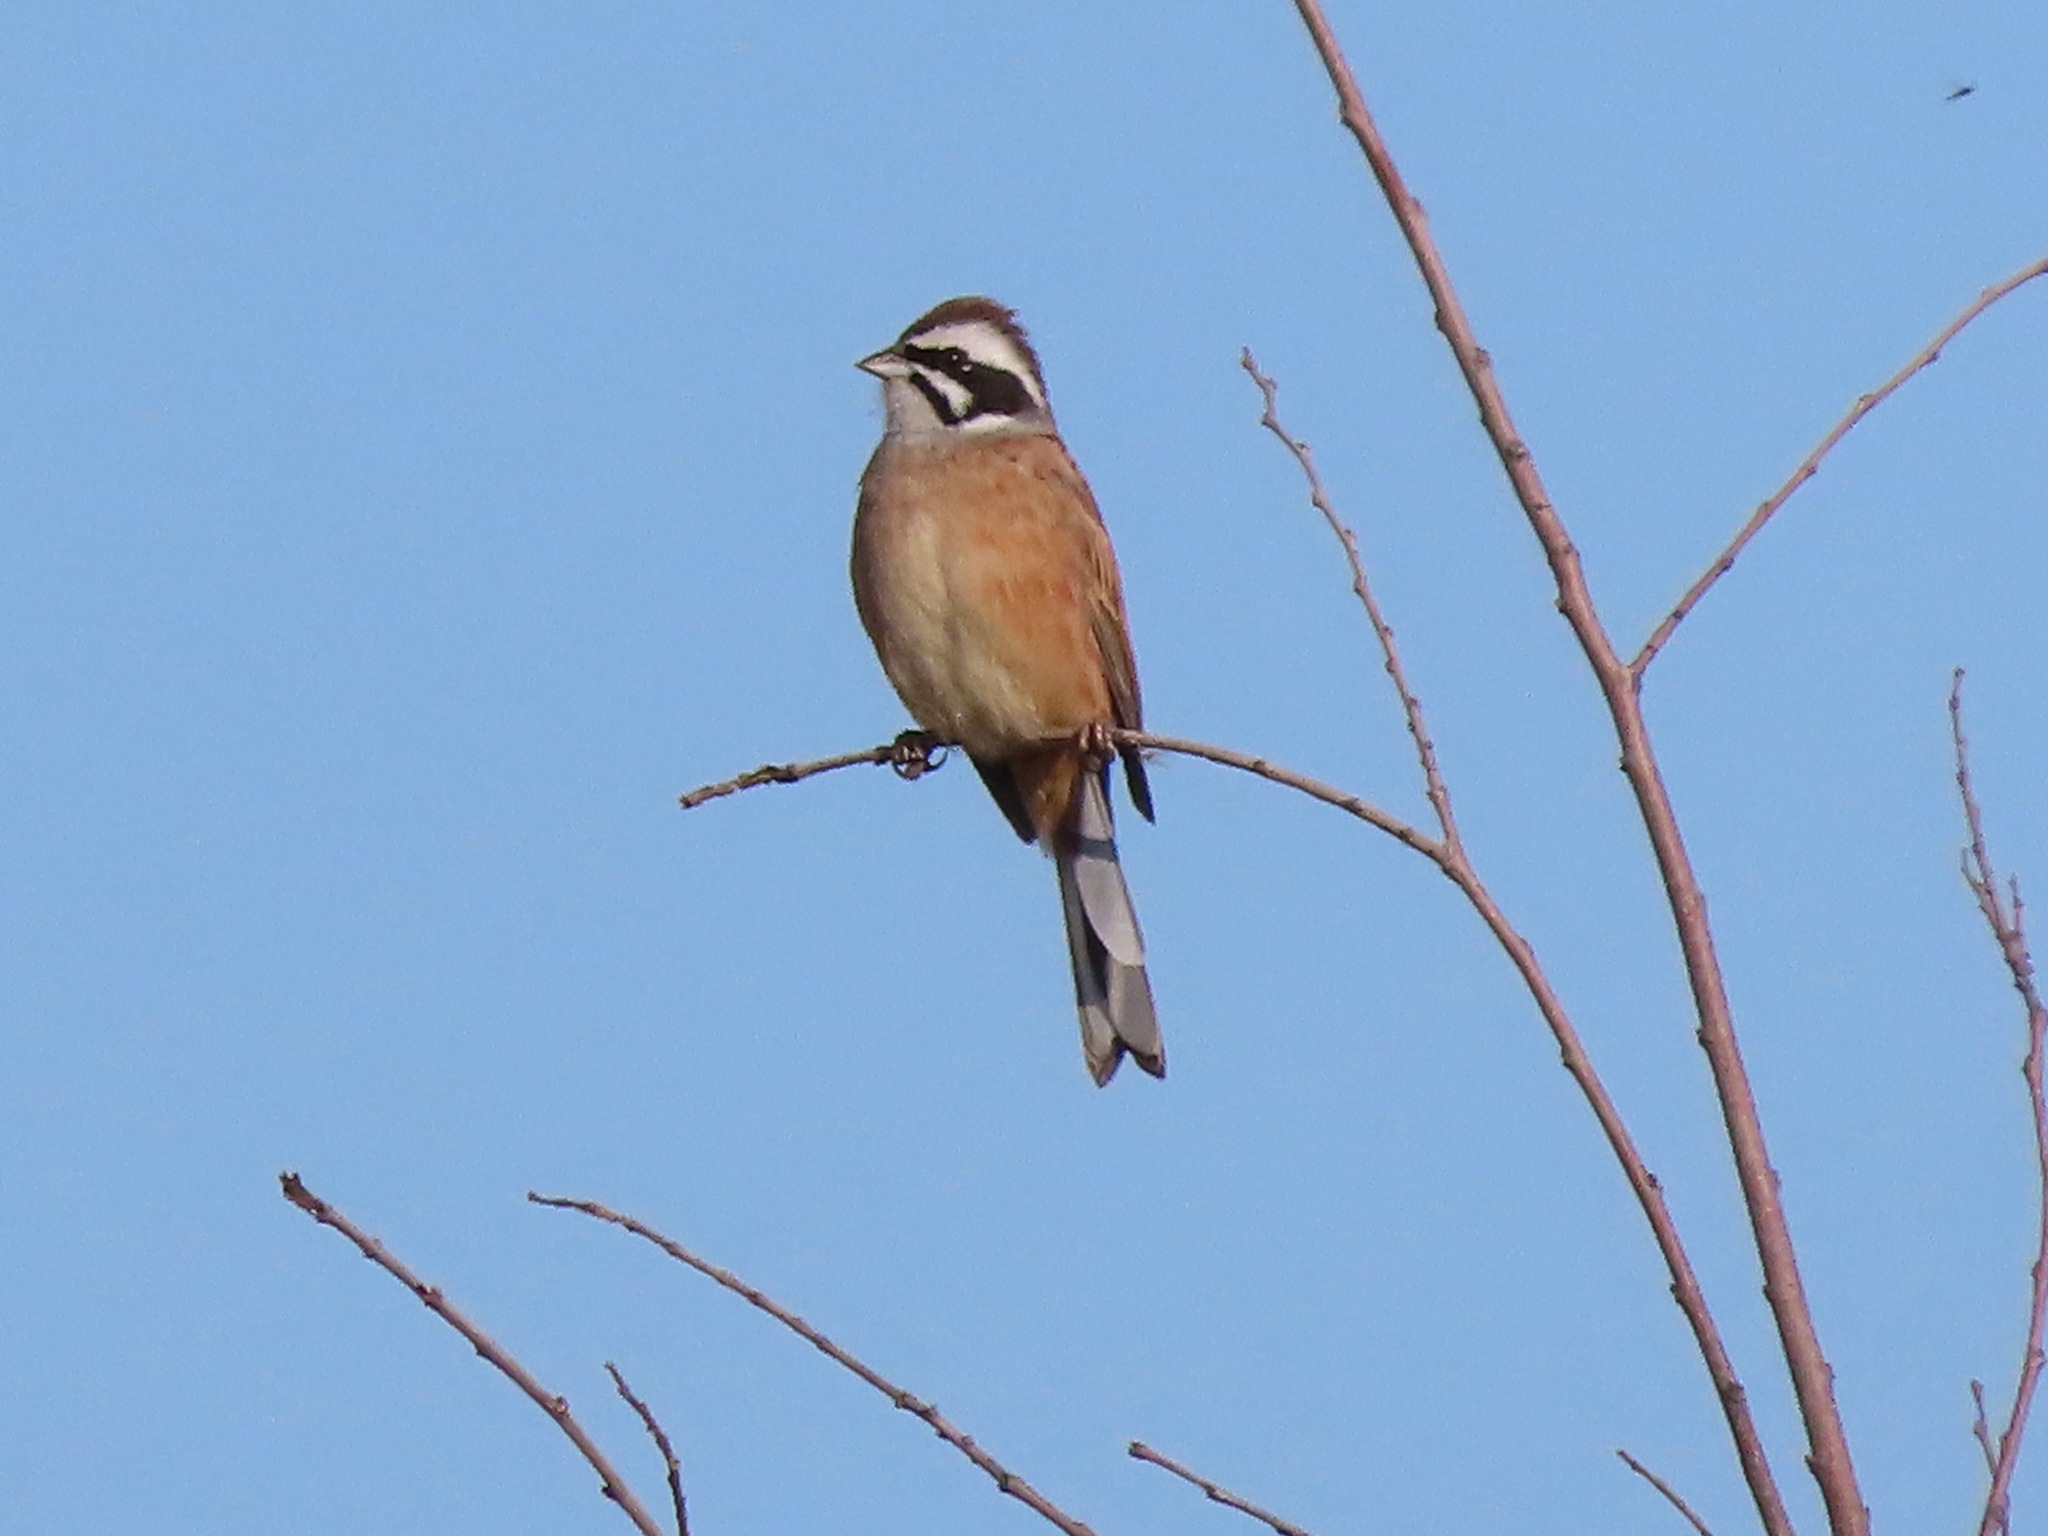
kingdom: Animalia
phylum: Chordata
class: Aves
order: Passeriformes
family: Emberizidae
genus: Emberiza
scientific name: Emberiza cioides
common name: Meadow bunting
